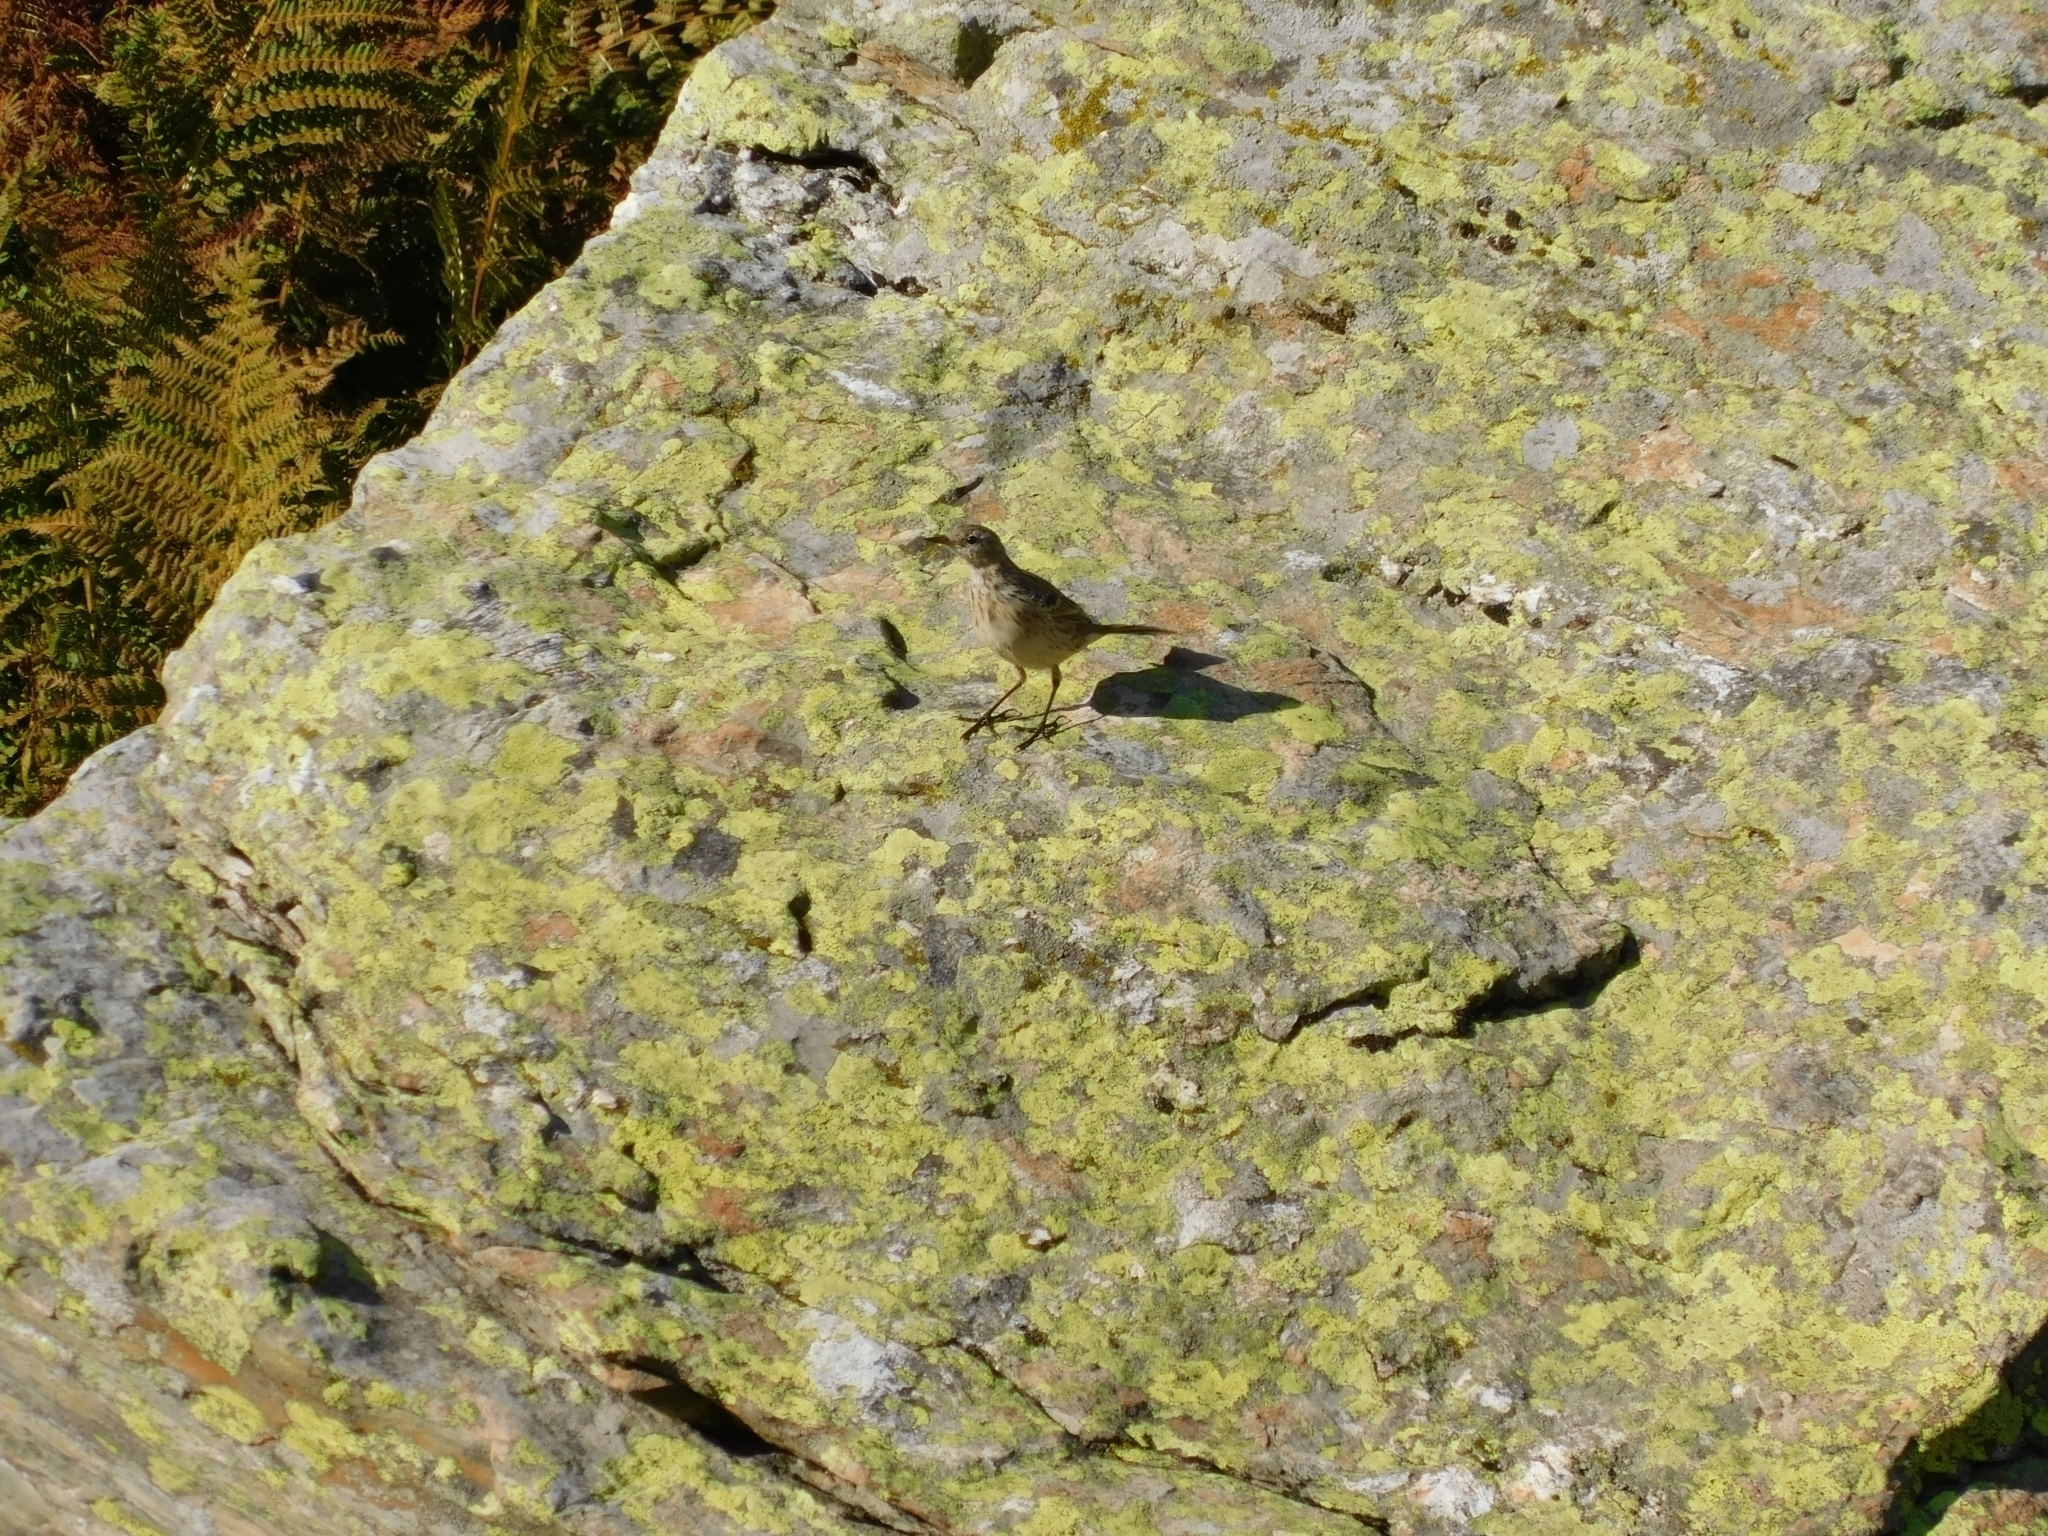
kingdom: Animalia
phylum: Chordata
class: Aves
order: Passeriformes
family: Motacillidae
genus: Anthus
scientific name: Anthus spinoletta
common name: Water pipit
